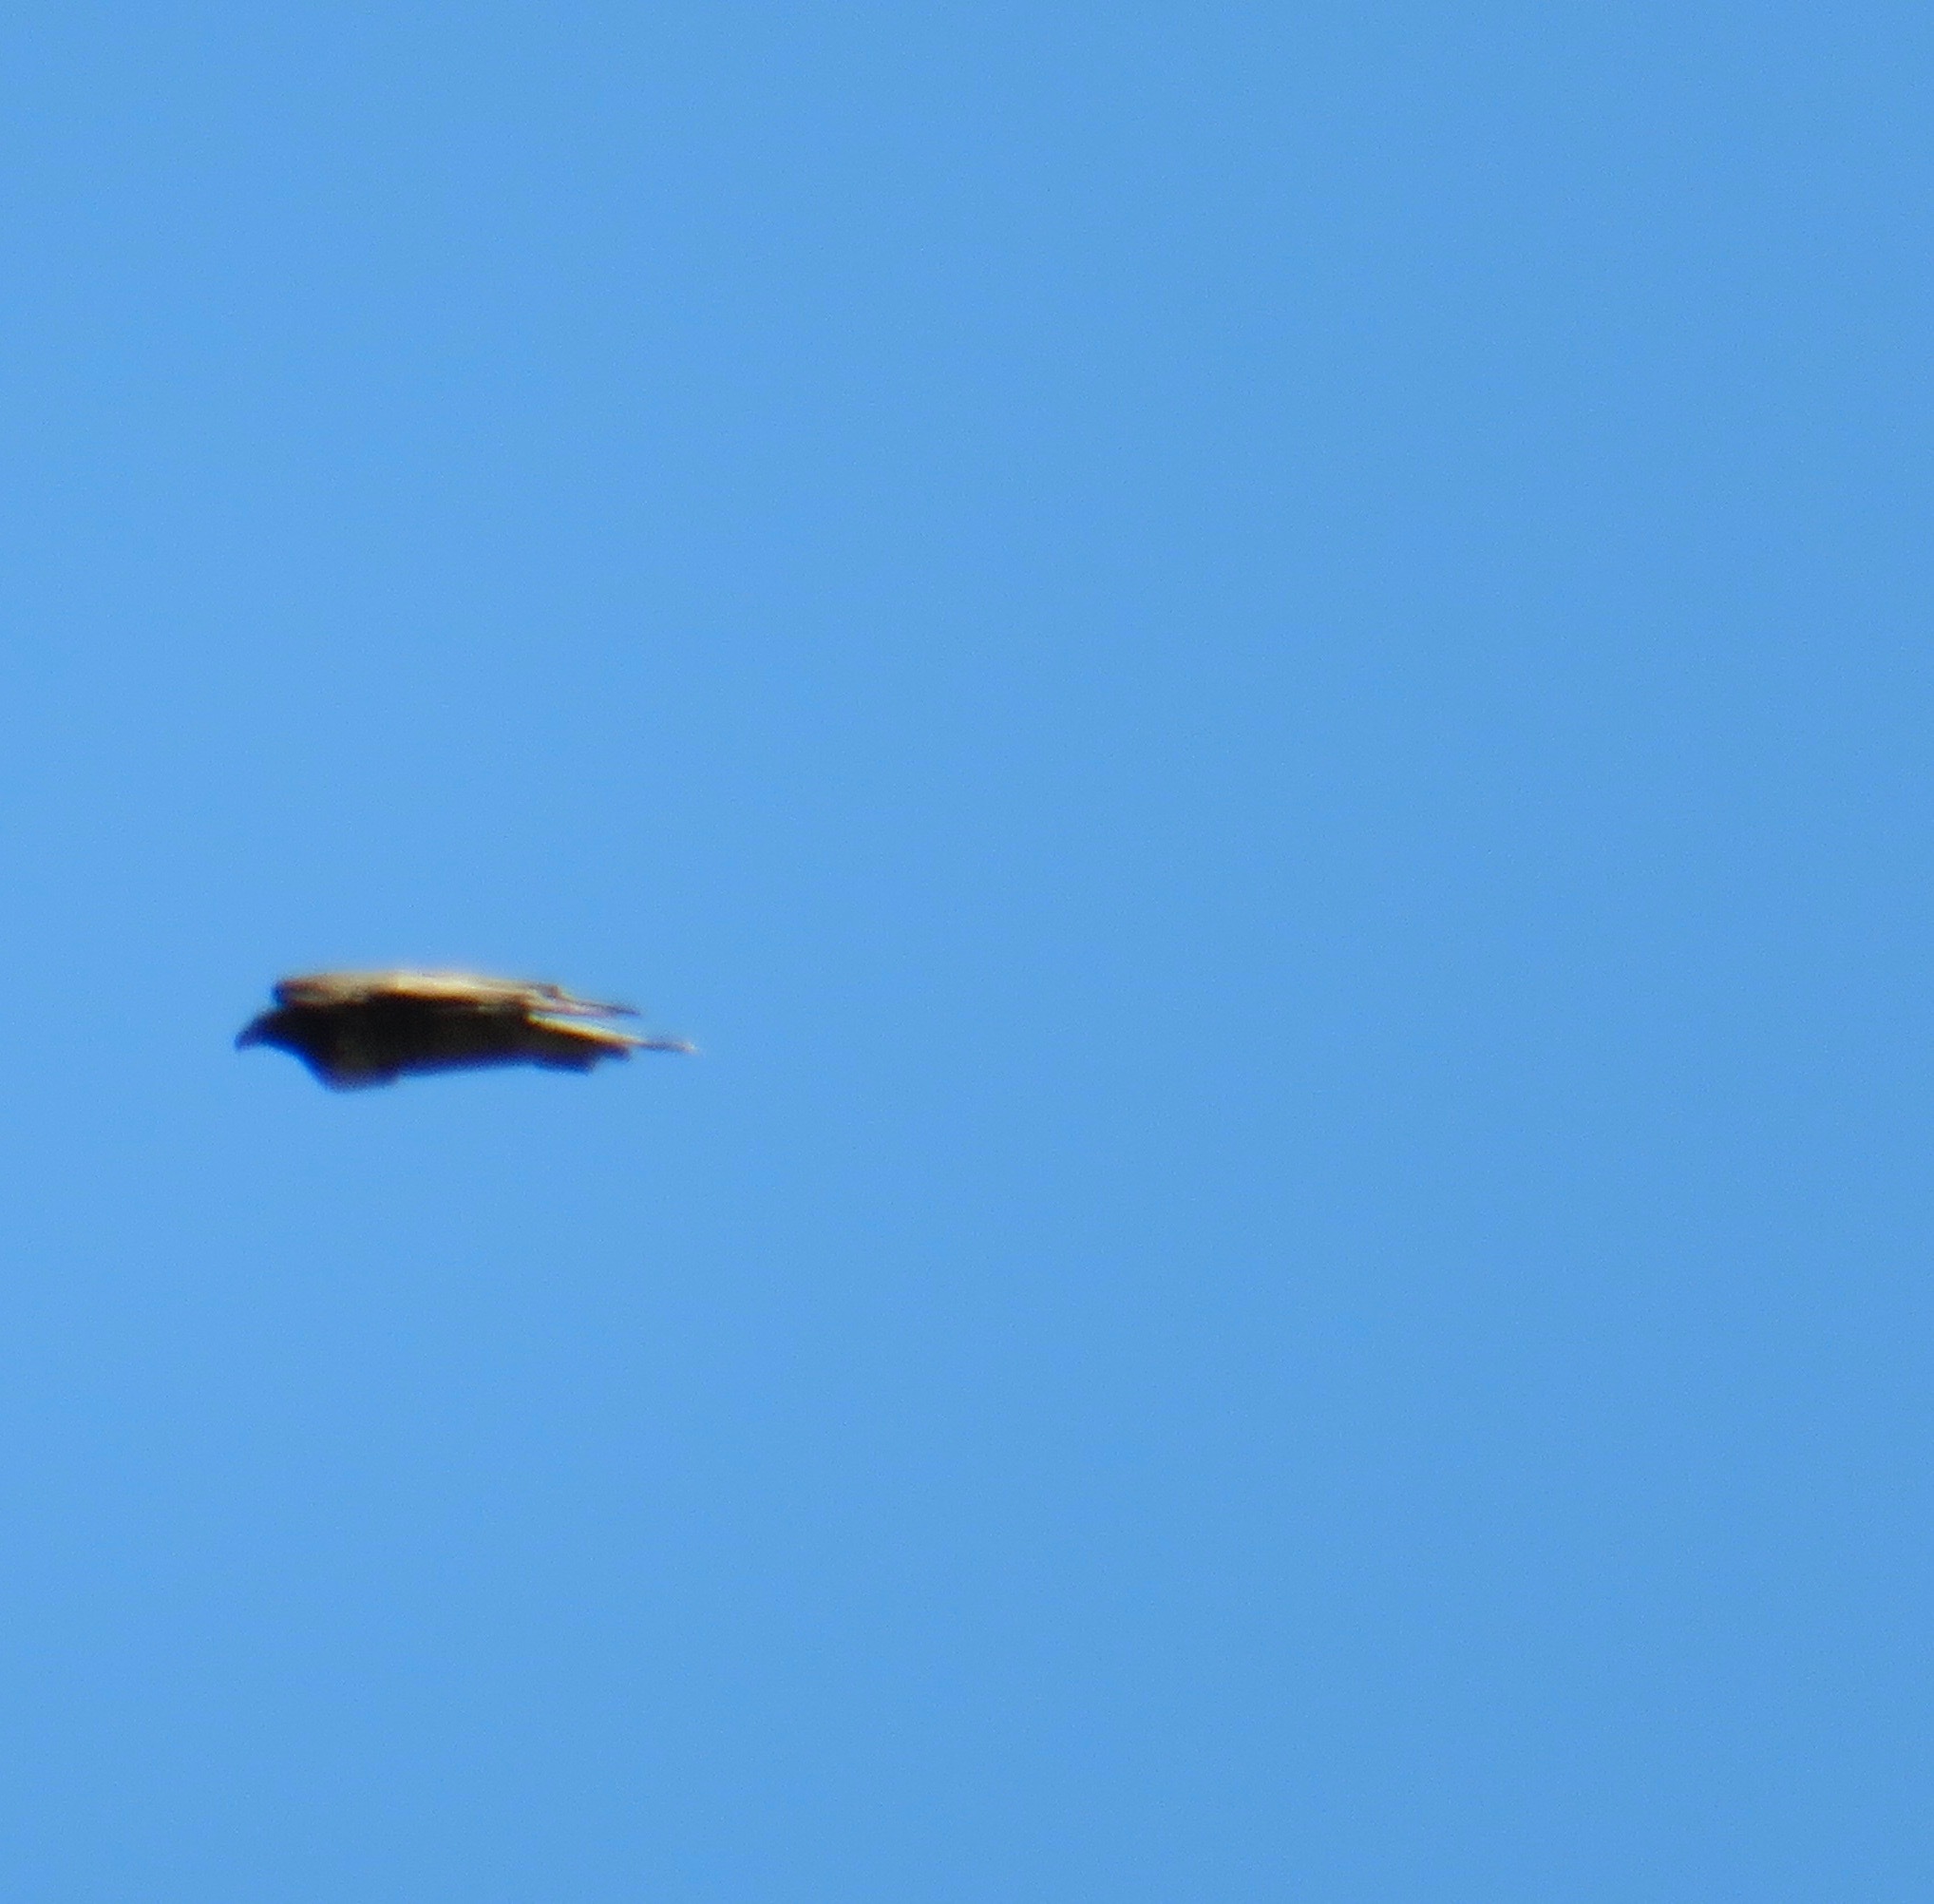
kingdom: Animalia
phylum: Chordata
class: Aves
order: Accipitriformes
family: Accipitridae
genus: Buteo
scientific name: Buteo jamaicensis
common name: Red-tailed hawk
